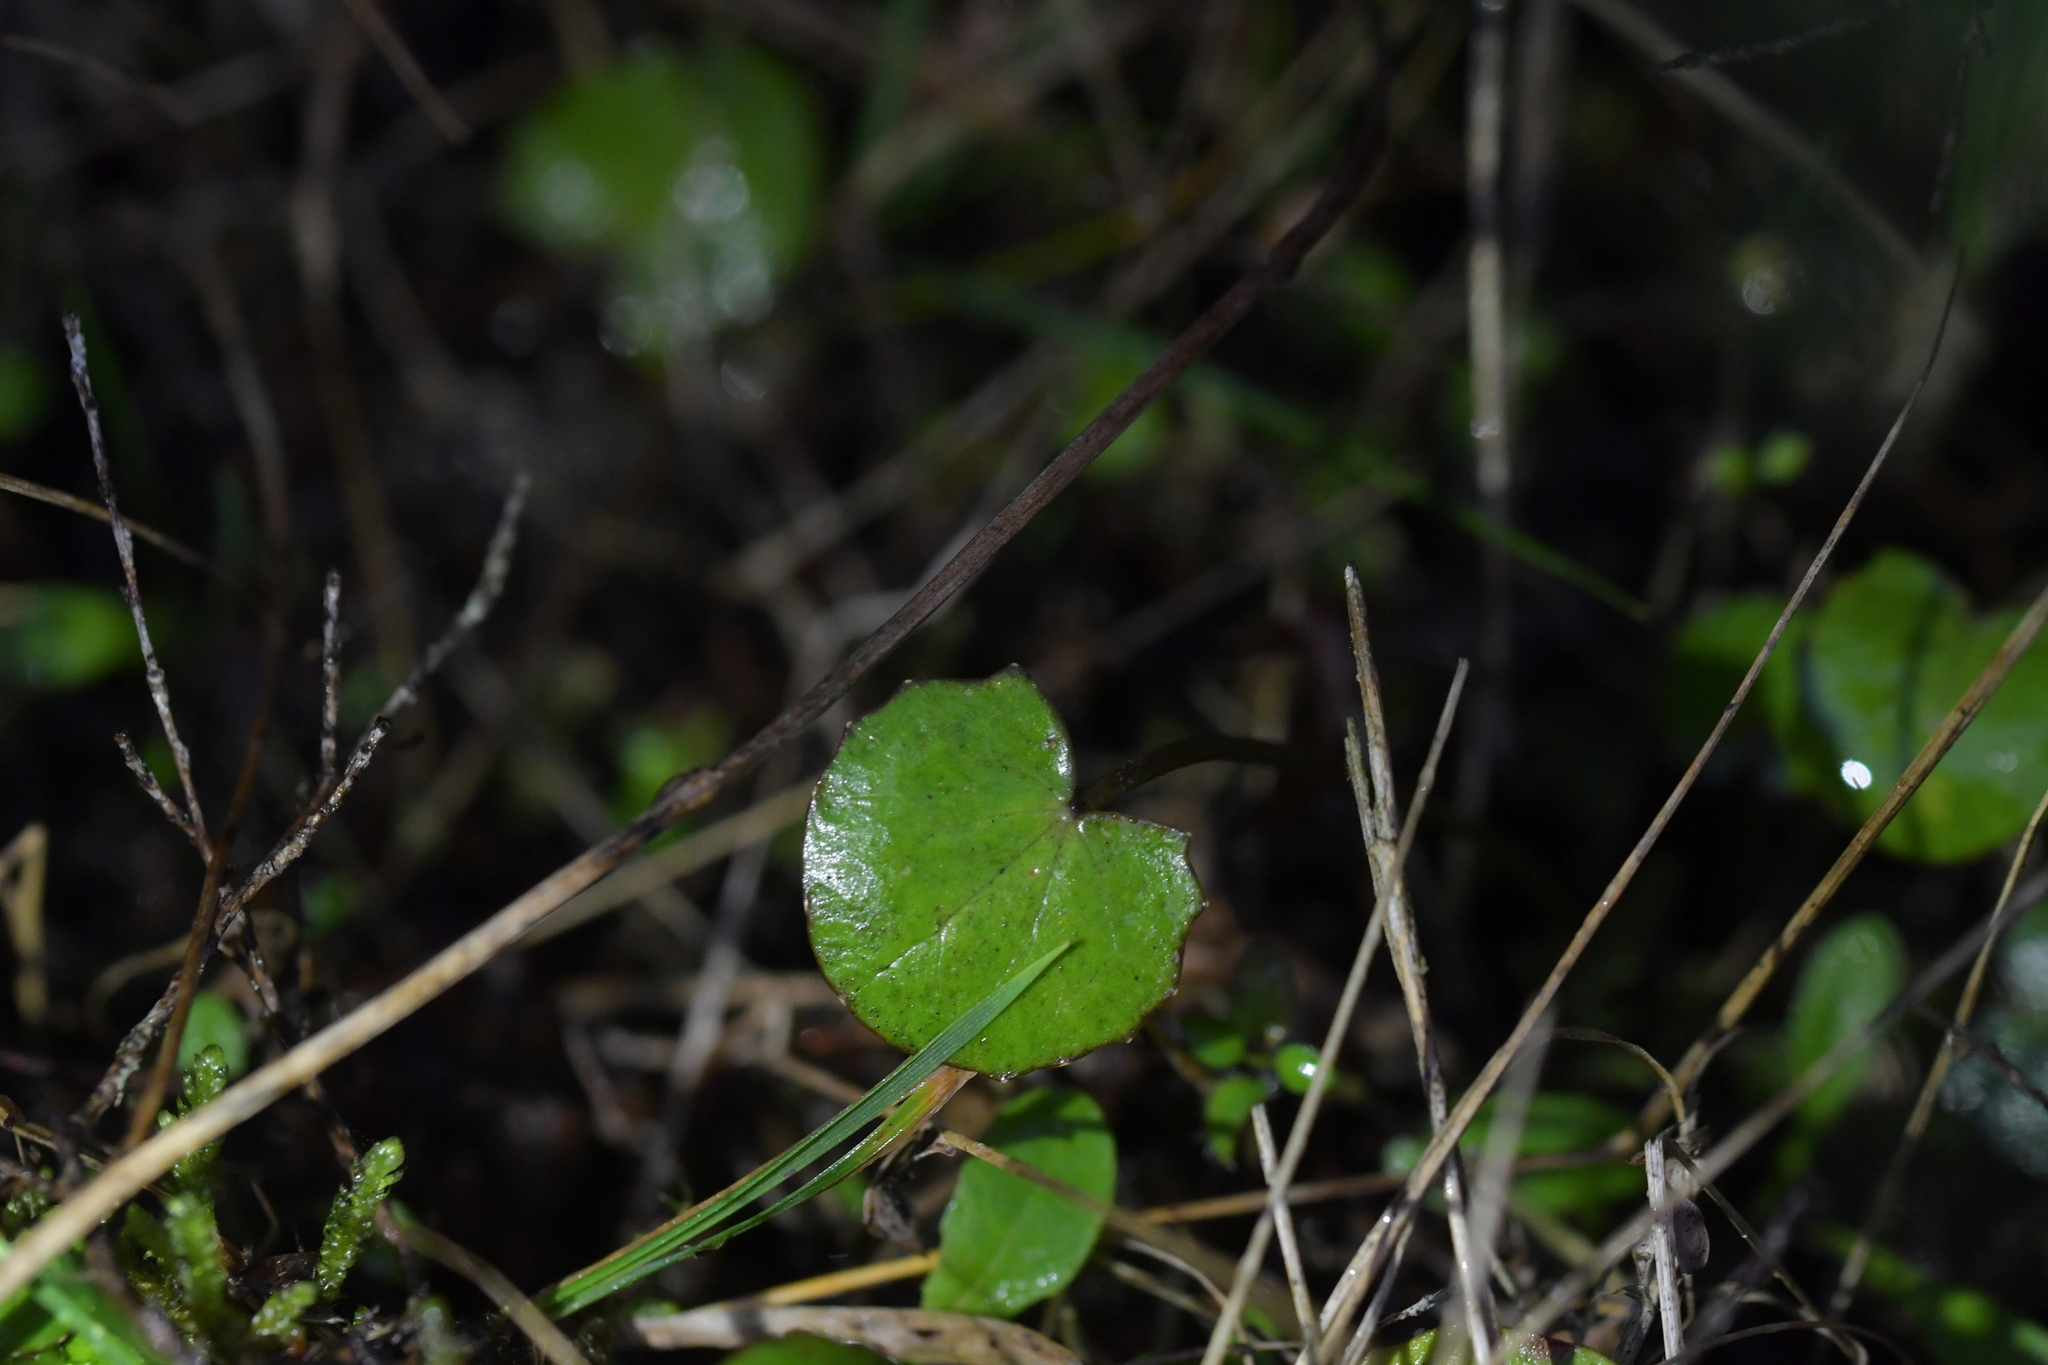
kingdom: Plantae
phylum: Tracheophyta
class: Magnoliopsida
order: Apiales
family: Apiaceae
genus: Centella
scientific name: Centella uniflora
